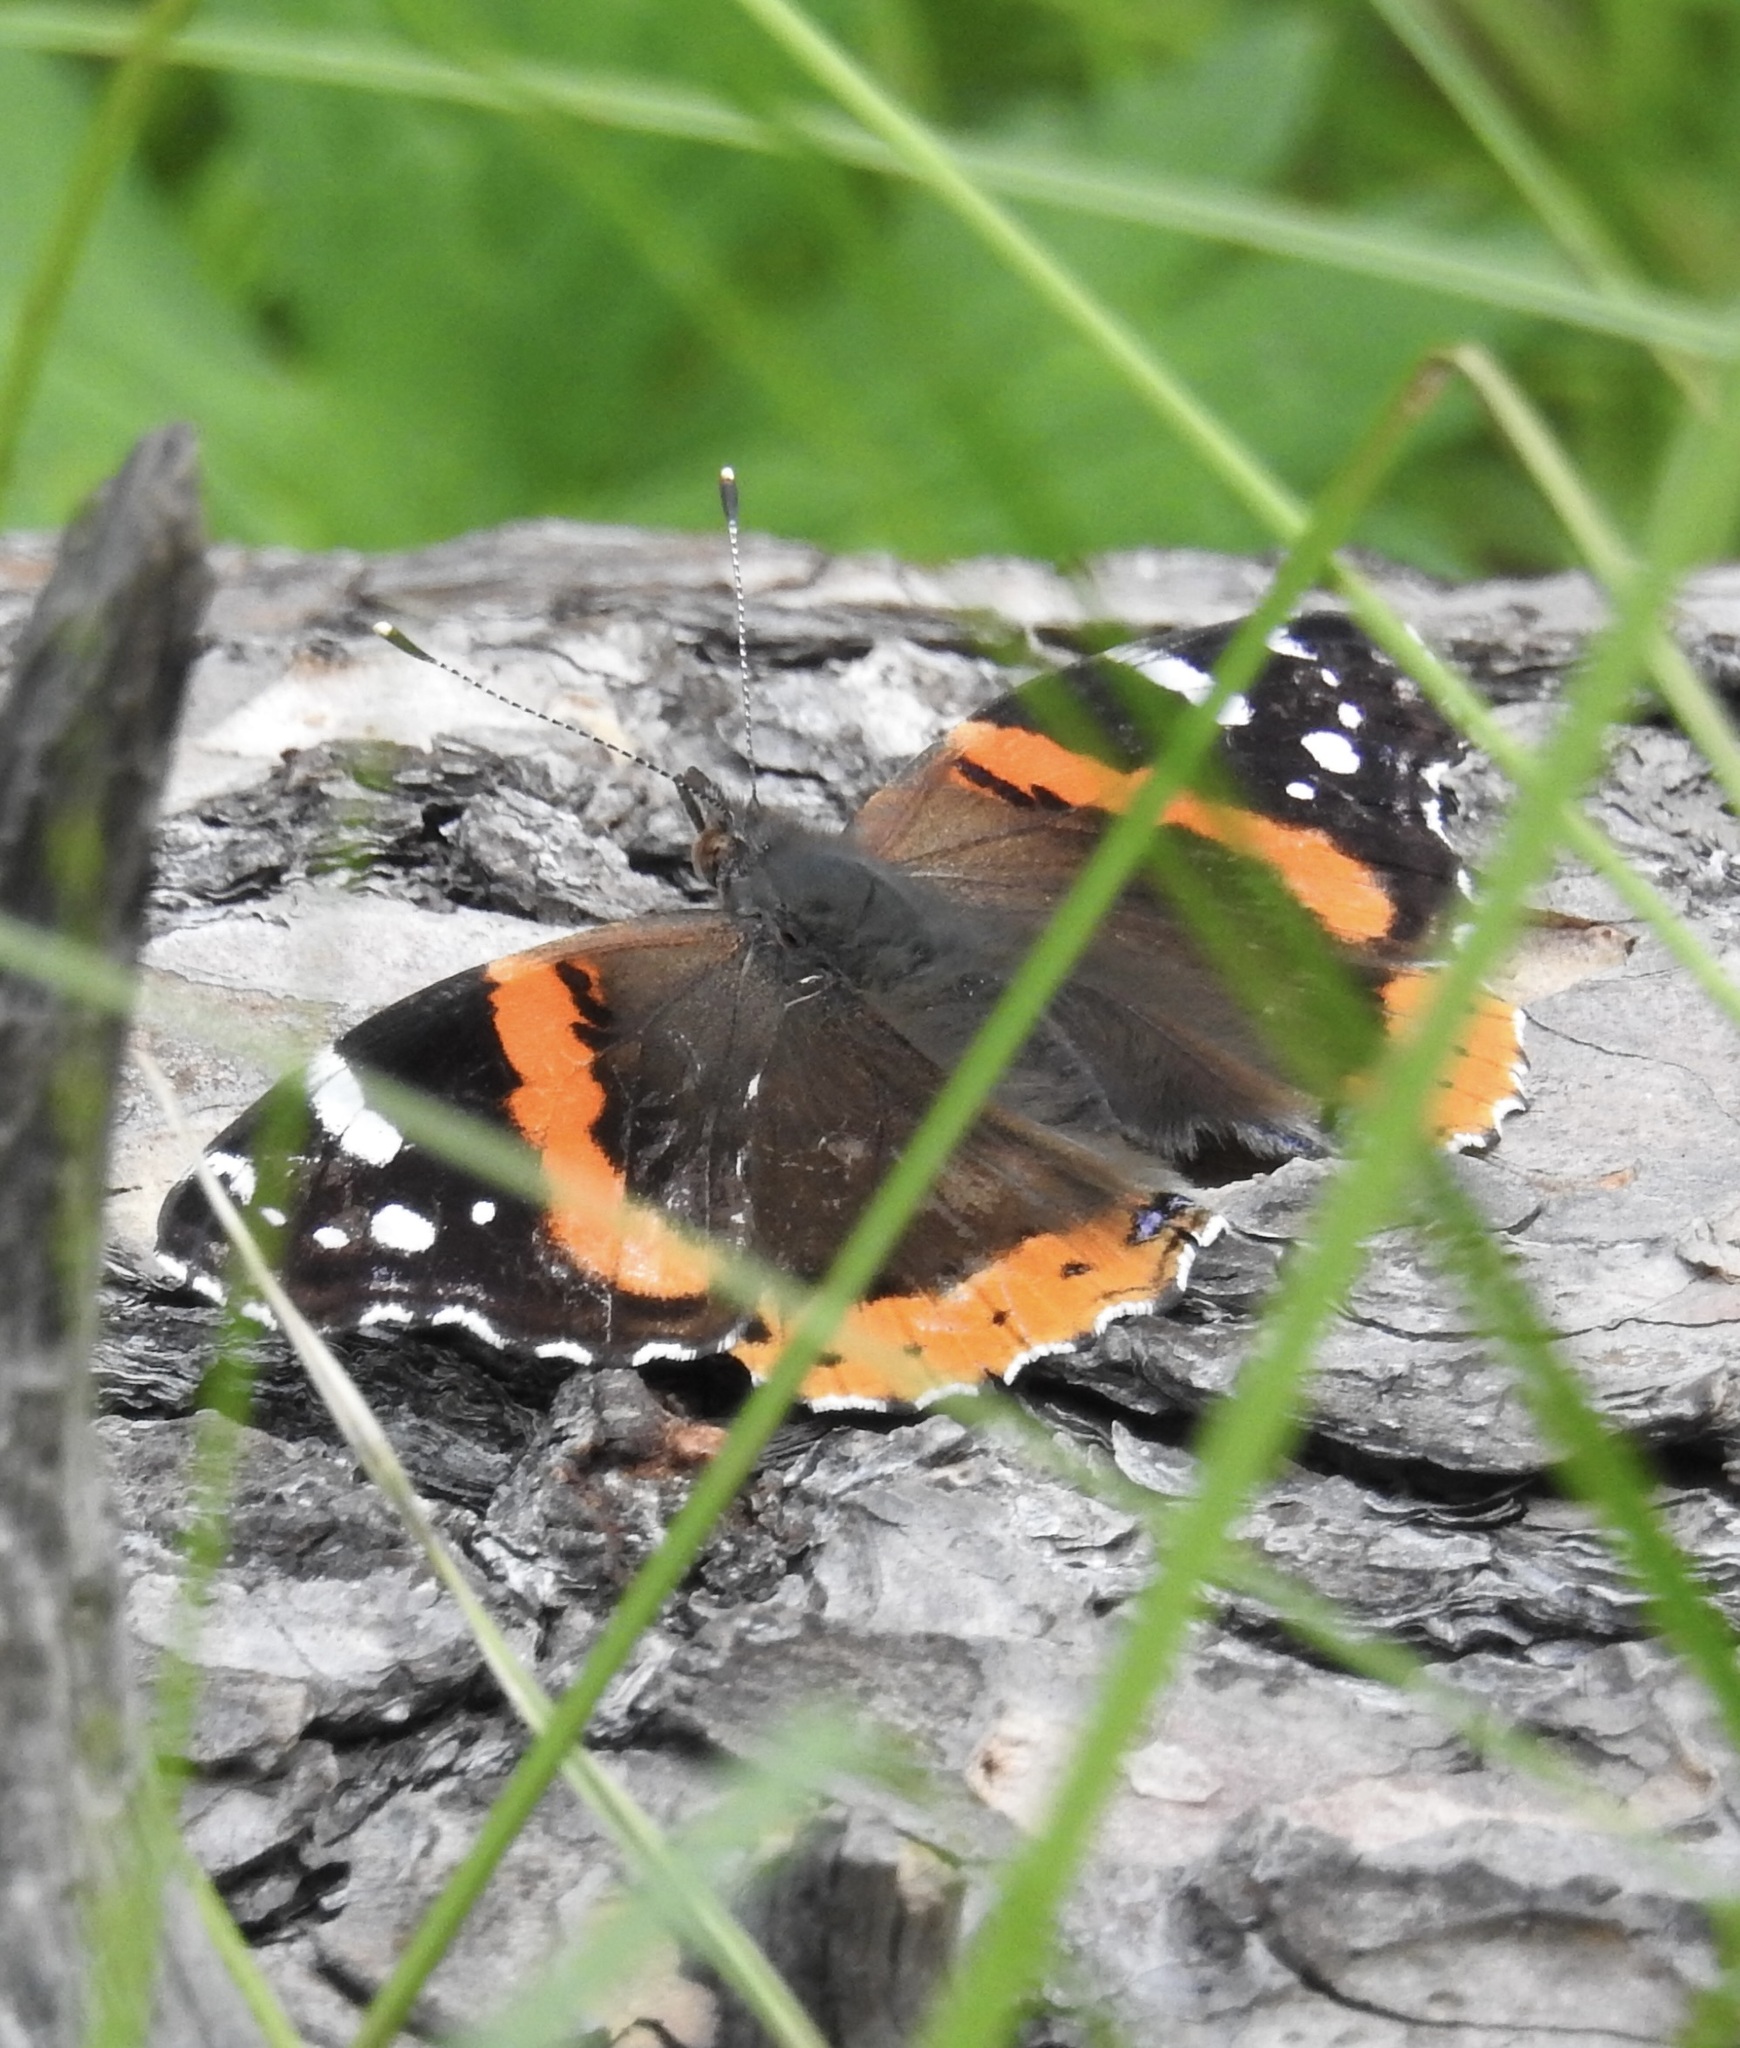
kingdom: Animalia
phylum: Arthropoda
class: Insecta
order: Lepidoptera
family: Nymphalidae
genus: Vanessa
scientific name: Vanessa atalanta
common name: Red admiral
